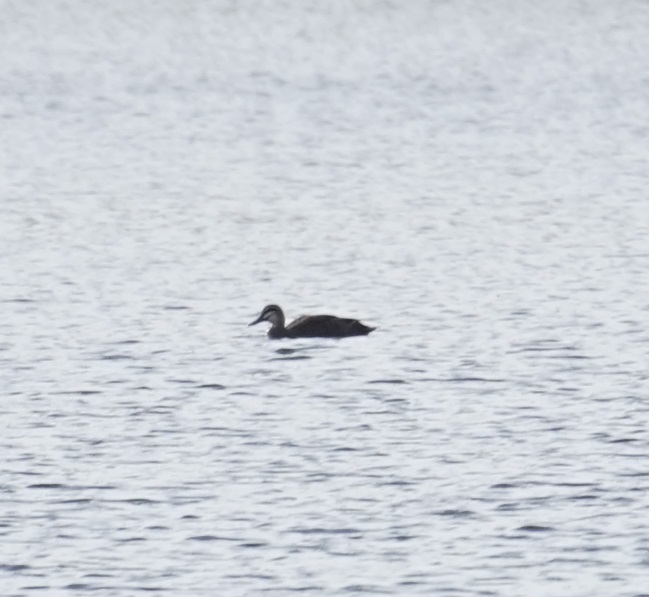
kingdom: Animalia
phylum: Chordata
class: Aves
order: Anseriformes
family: Anatidae
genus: Anas
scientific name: Anas superciliosa
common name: Pacific black duck
